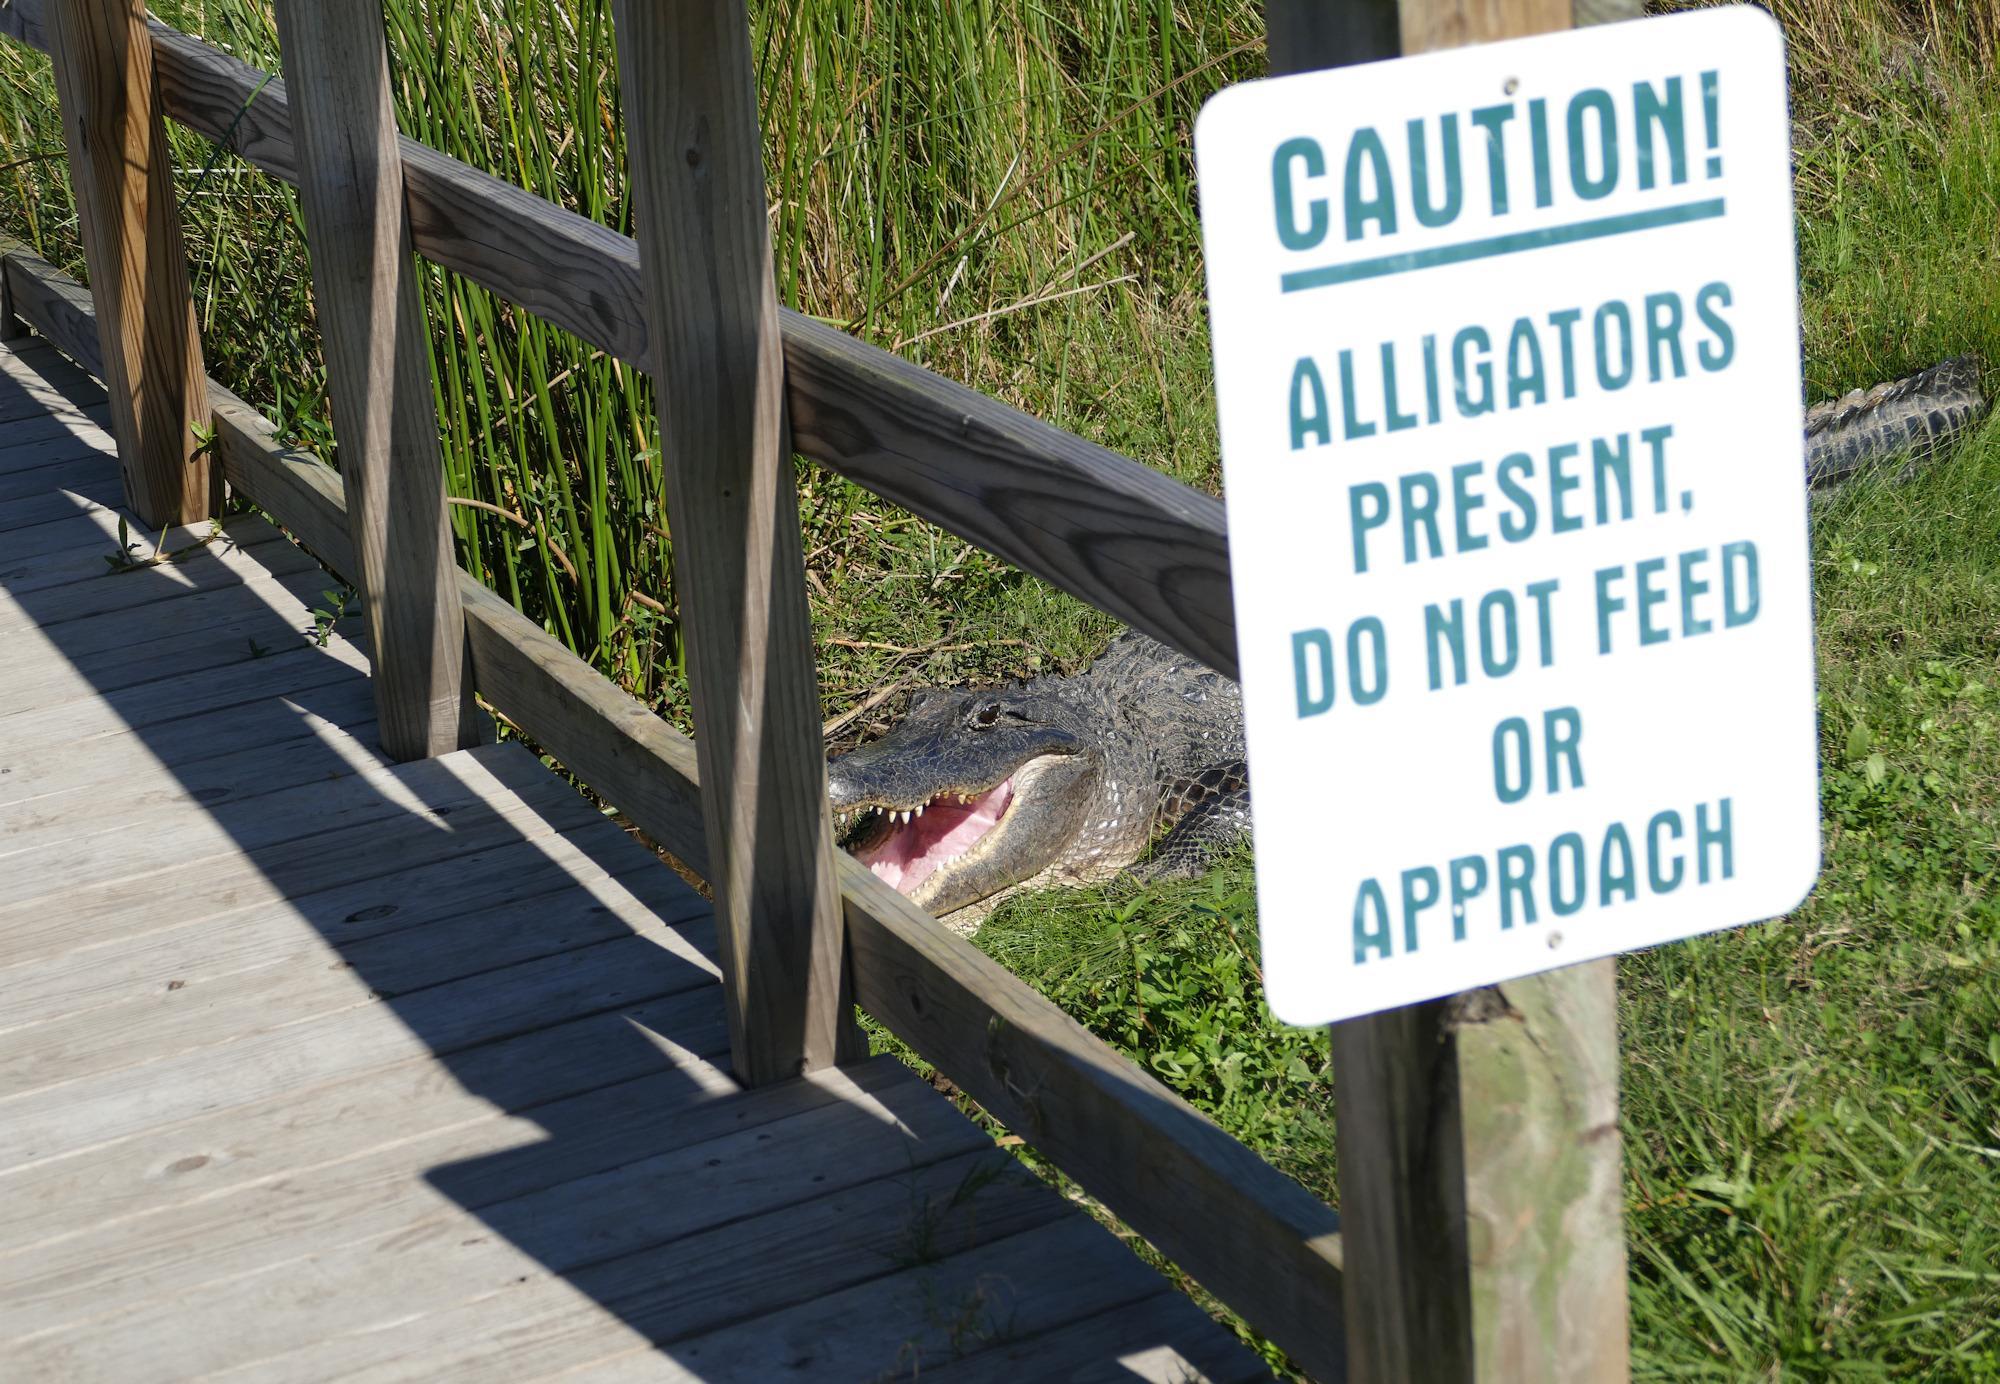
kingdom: Animalia
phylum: Chordata
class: Crocodylia
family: Alligatoridae
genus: Alligator
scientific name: Alligator mississippiensis
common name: American alligator
